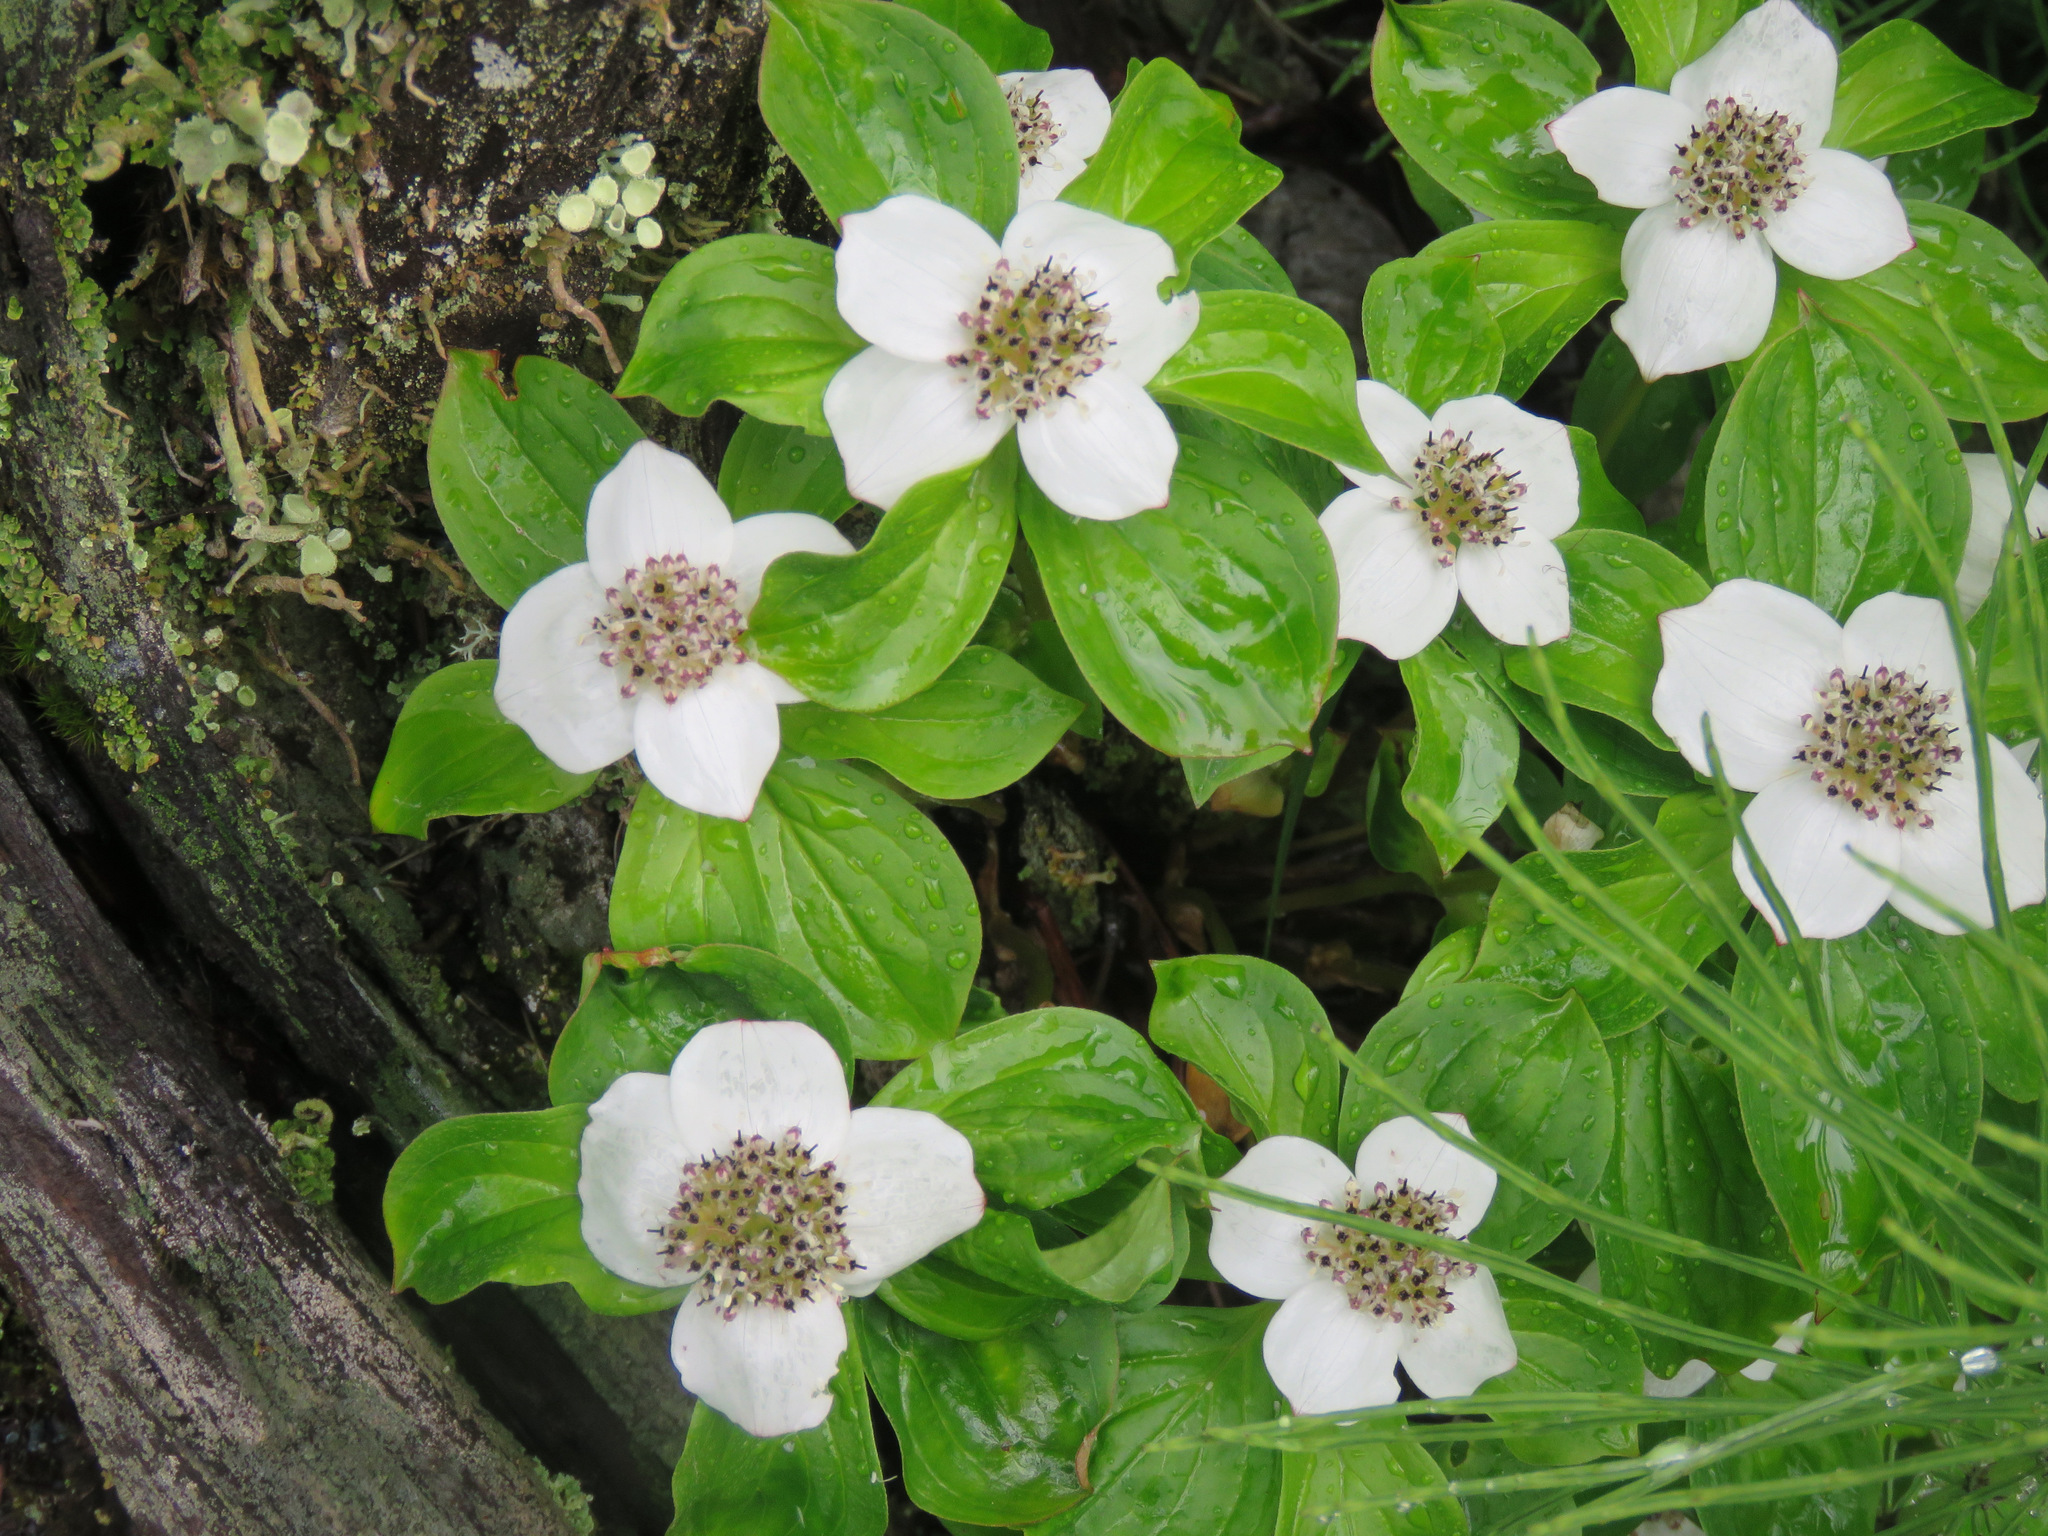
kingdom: Plantae
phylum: Tracheophyta
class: Magnoliopsida
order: Cornales
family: Cornaceae
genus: Cornus
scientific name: Cornus unalaschkensis
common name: Alaska bunchberry
